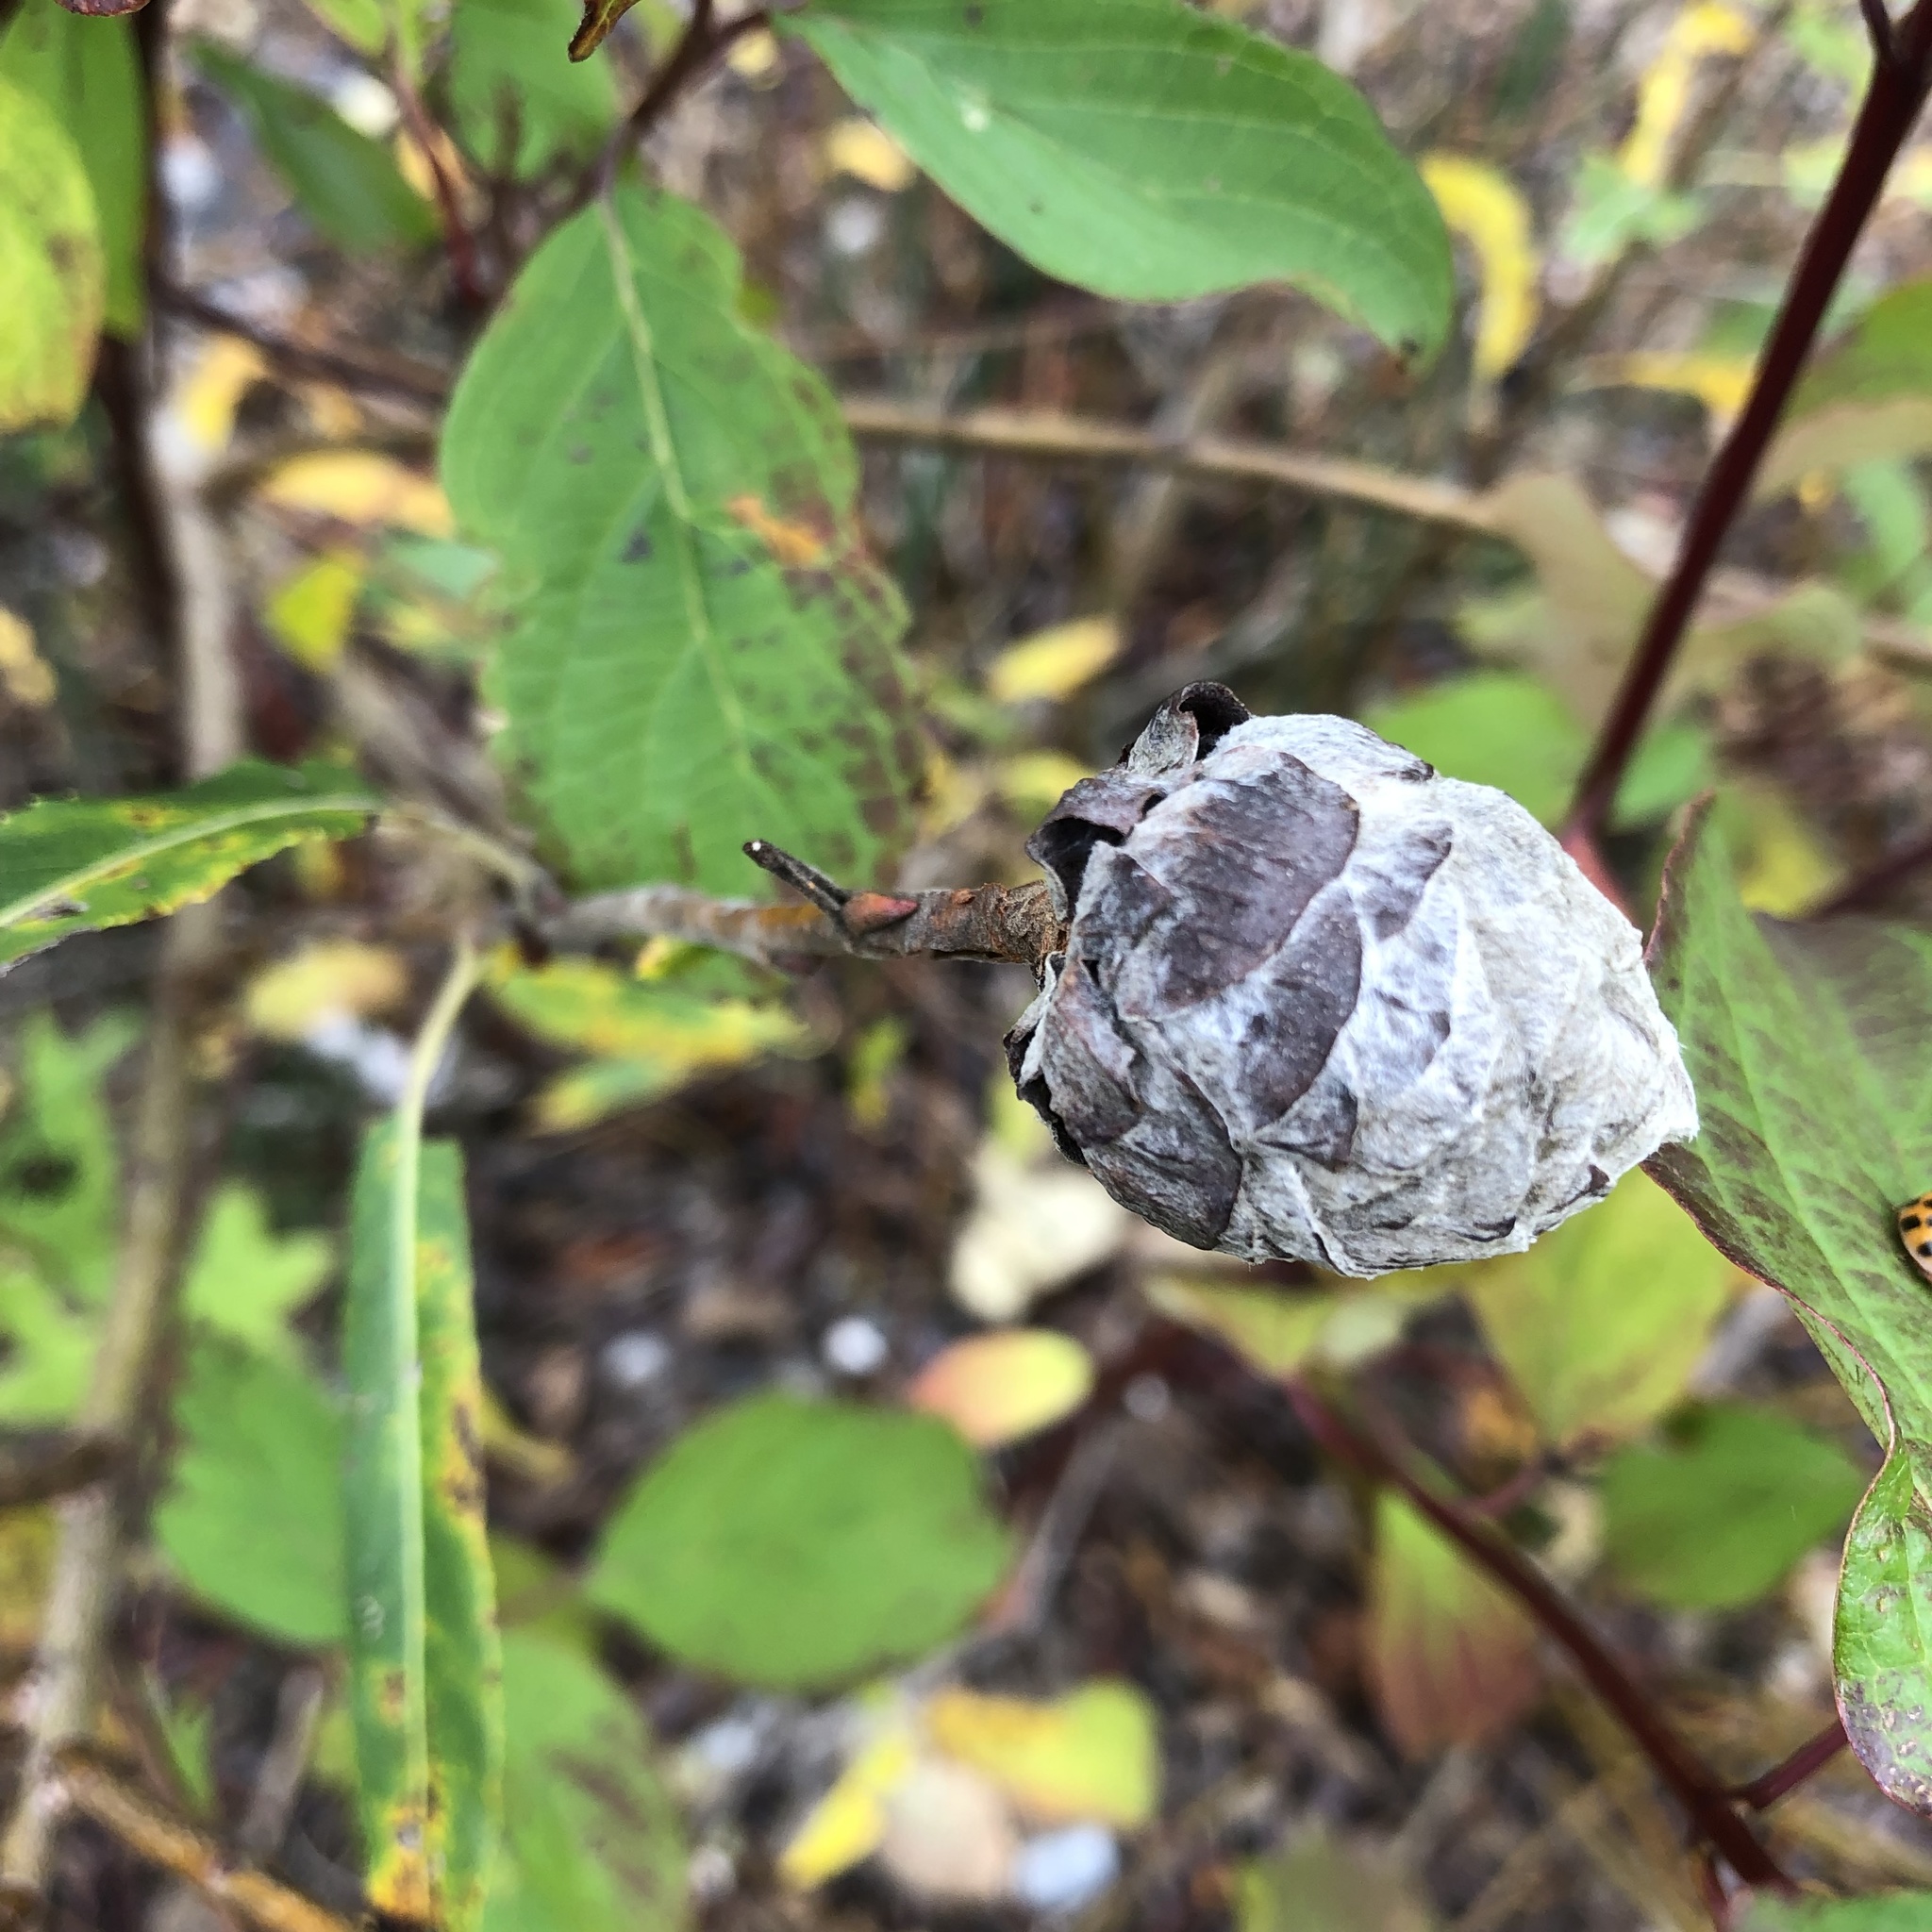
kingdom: Animalia
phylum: Arthropoda
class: Insecta
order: Diptera
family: Cecidomyiidae
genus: Rabdophaga
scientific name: Rabdophaga strobiloides
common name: Willow pinecone gall midge
